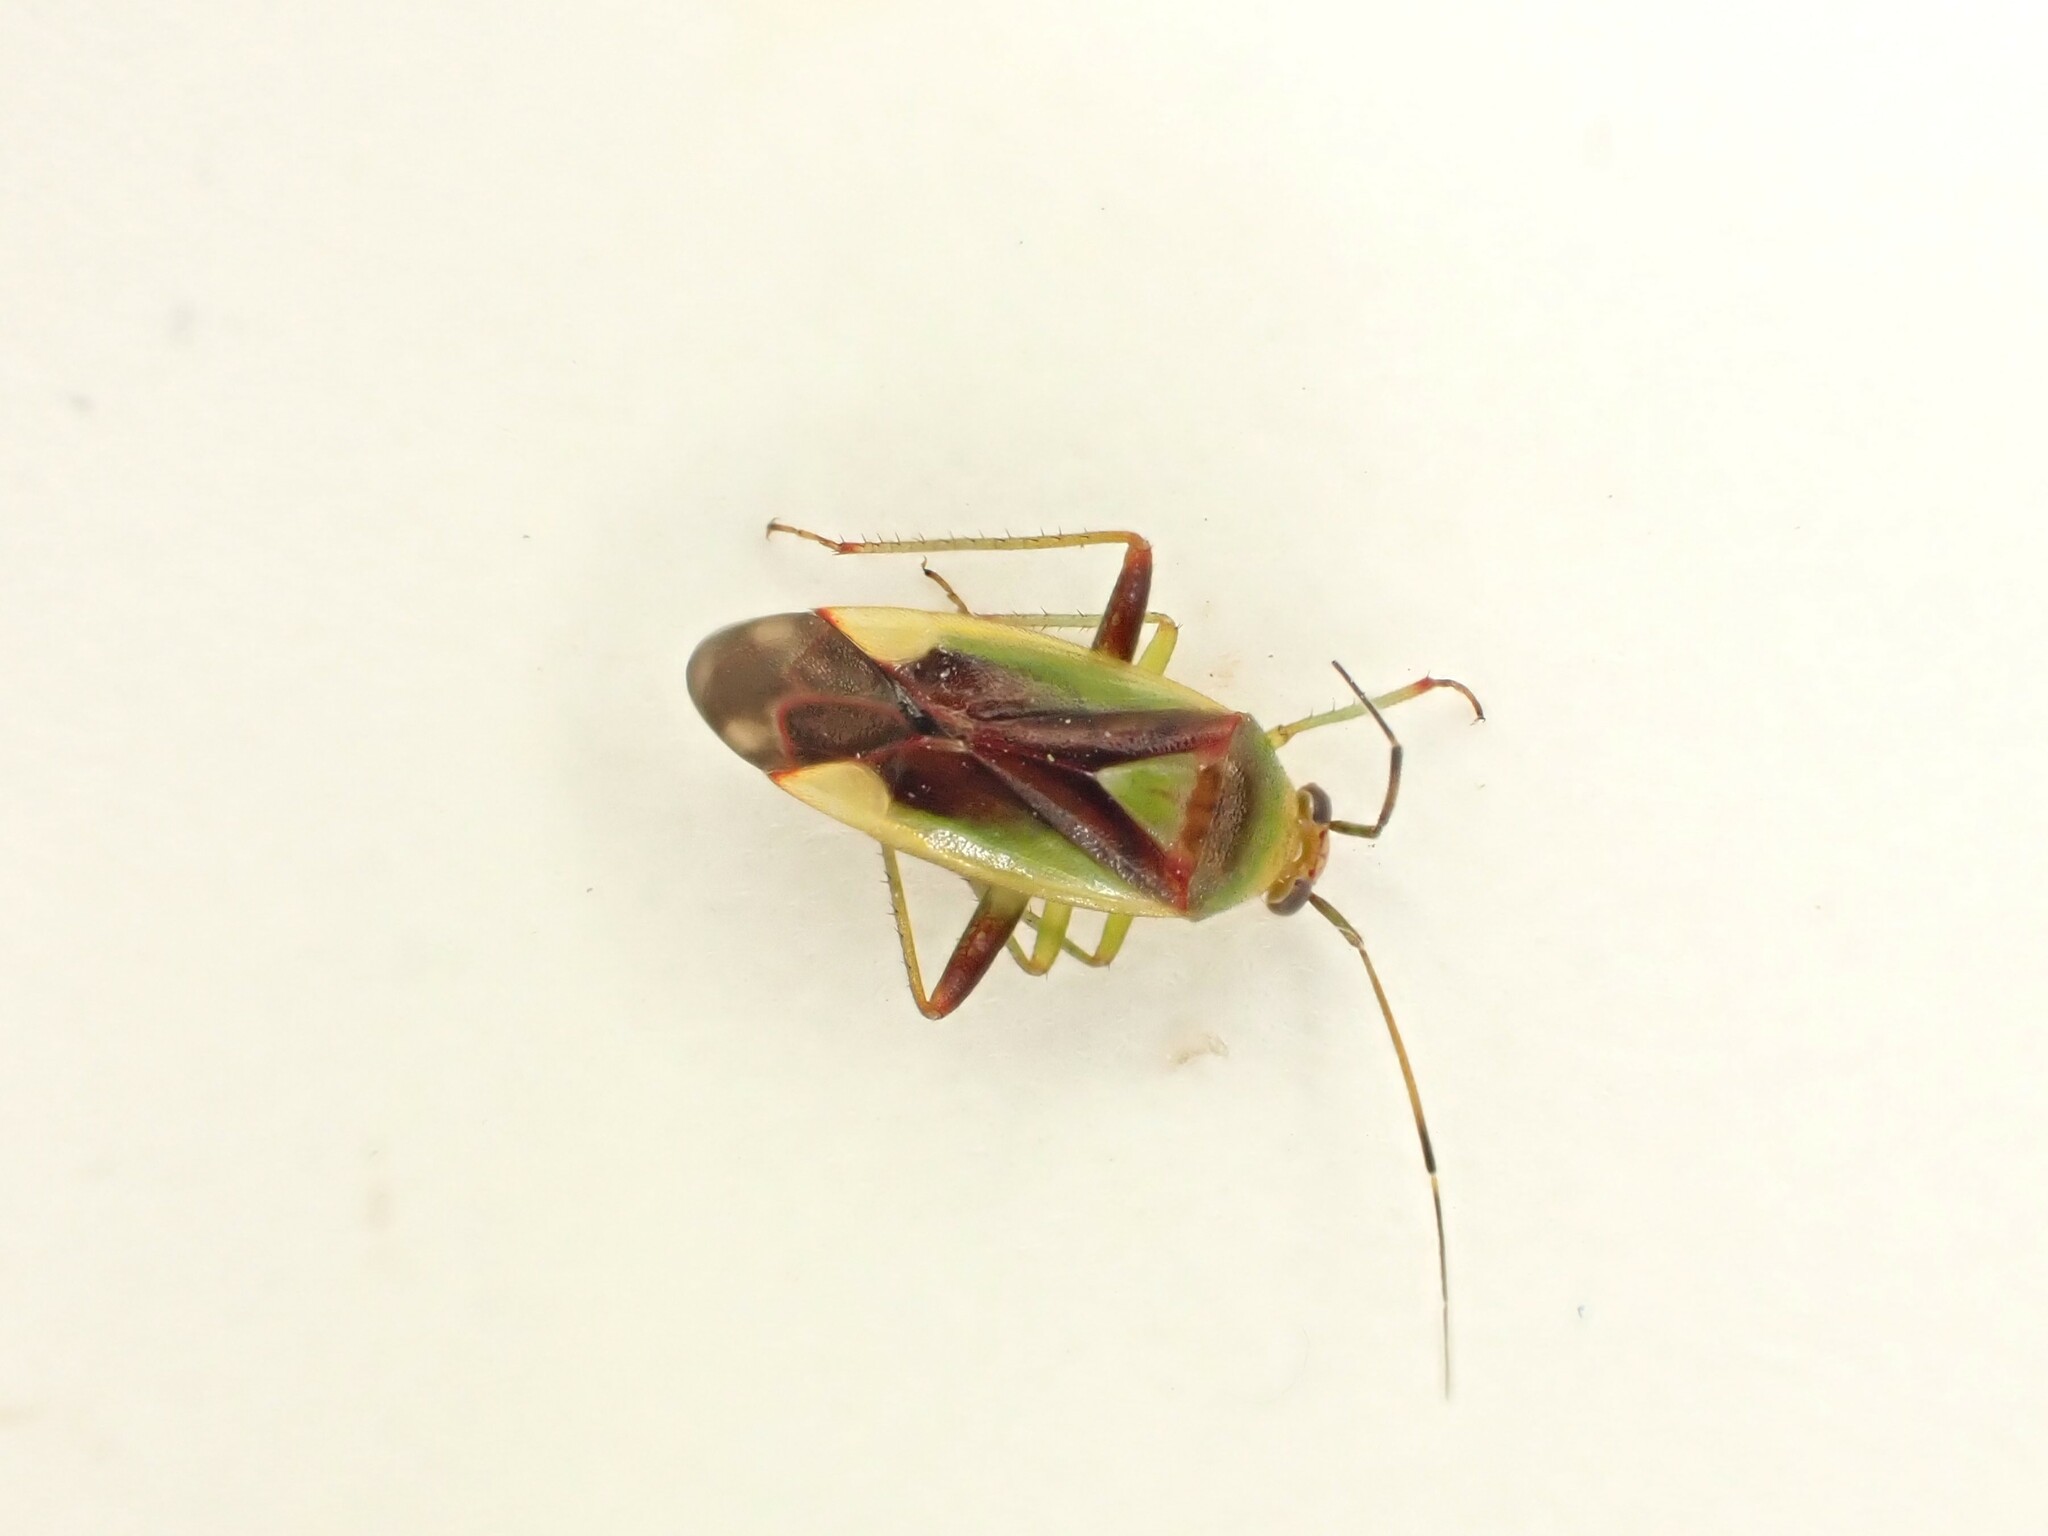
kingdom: Animalia
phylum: Arthropoda
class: Insecta
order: Hemiptera
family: Miridae
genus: Tuicoris
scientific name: Tuicoris lipurus
